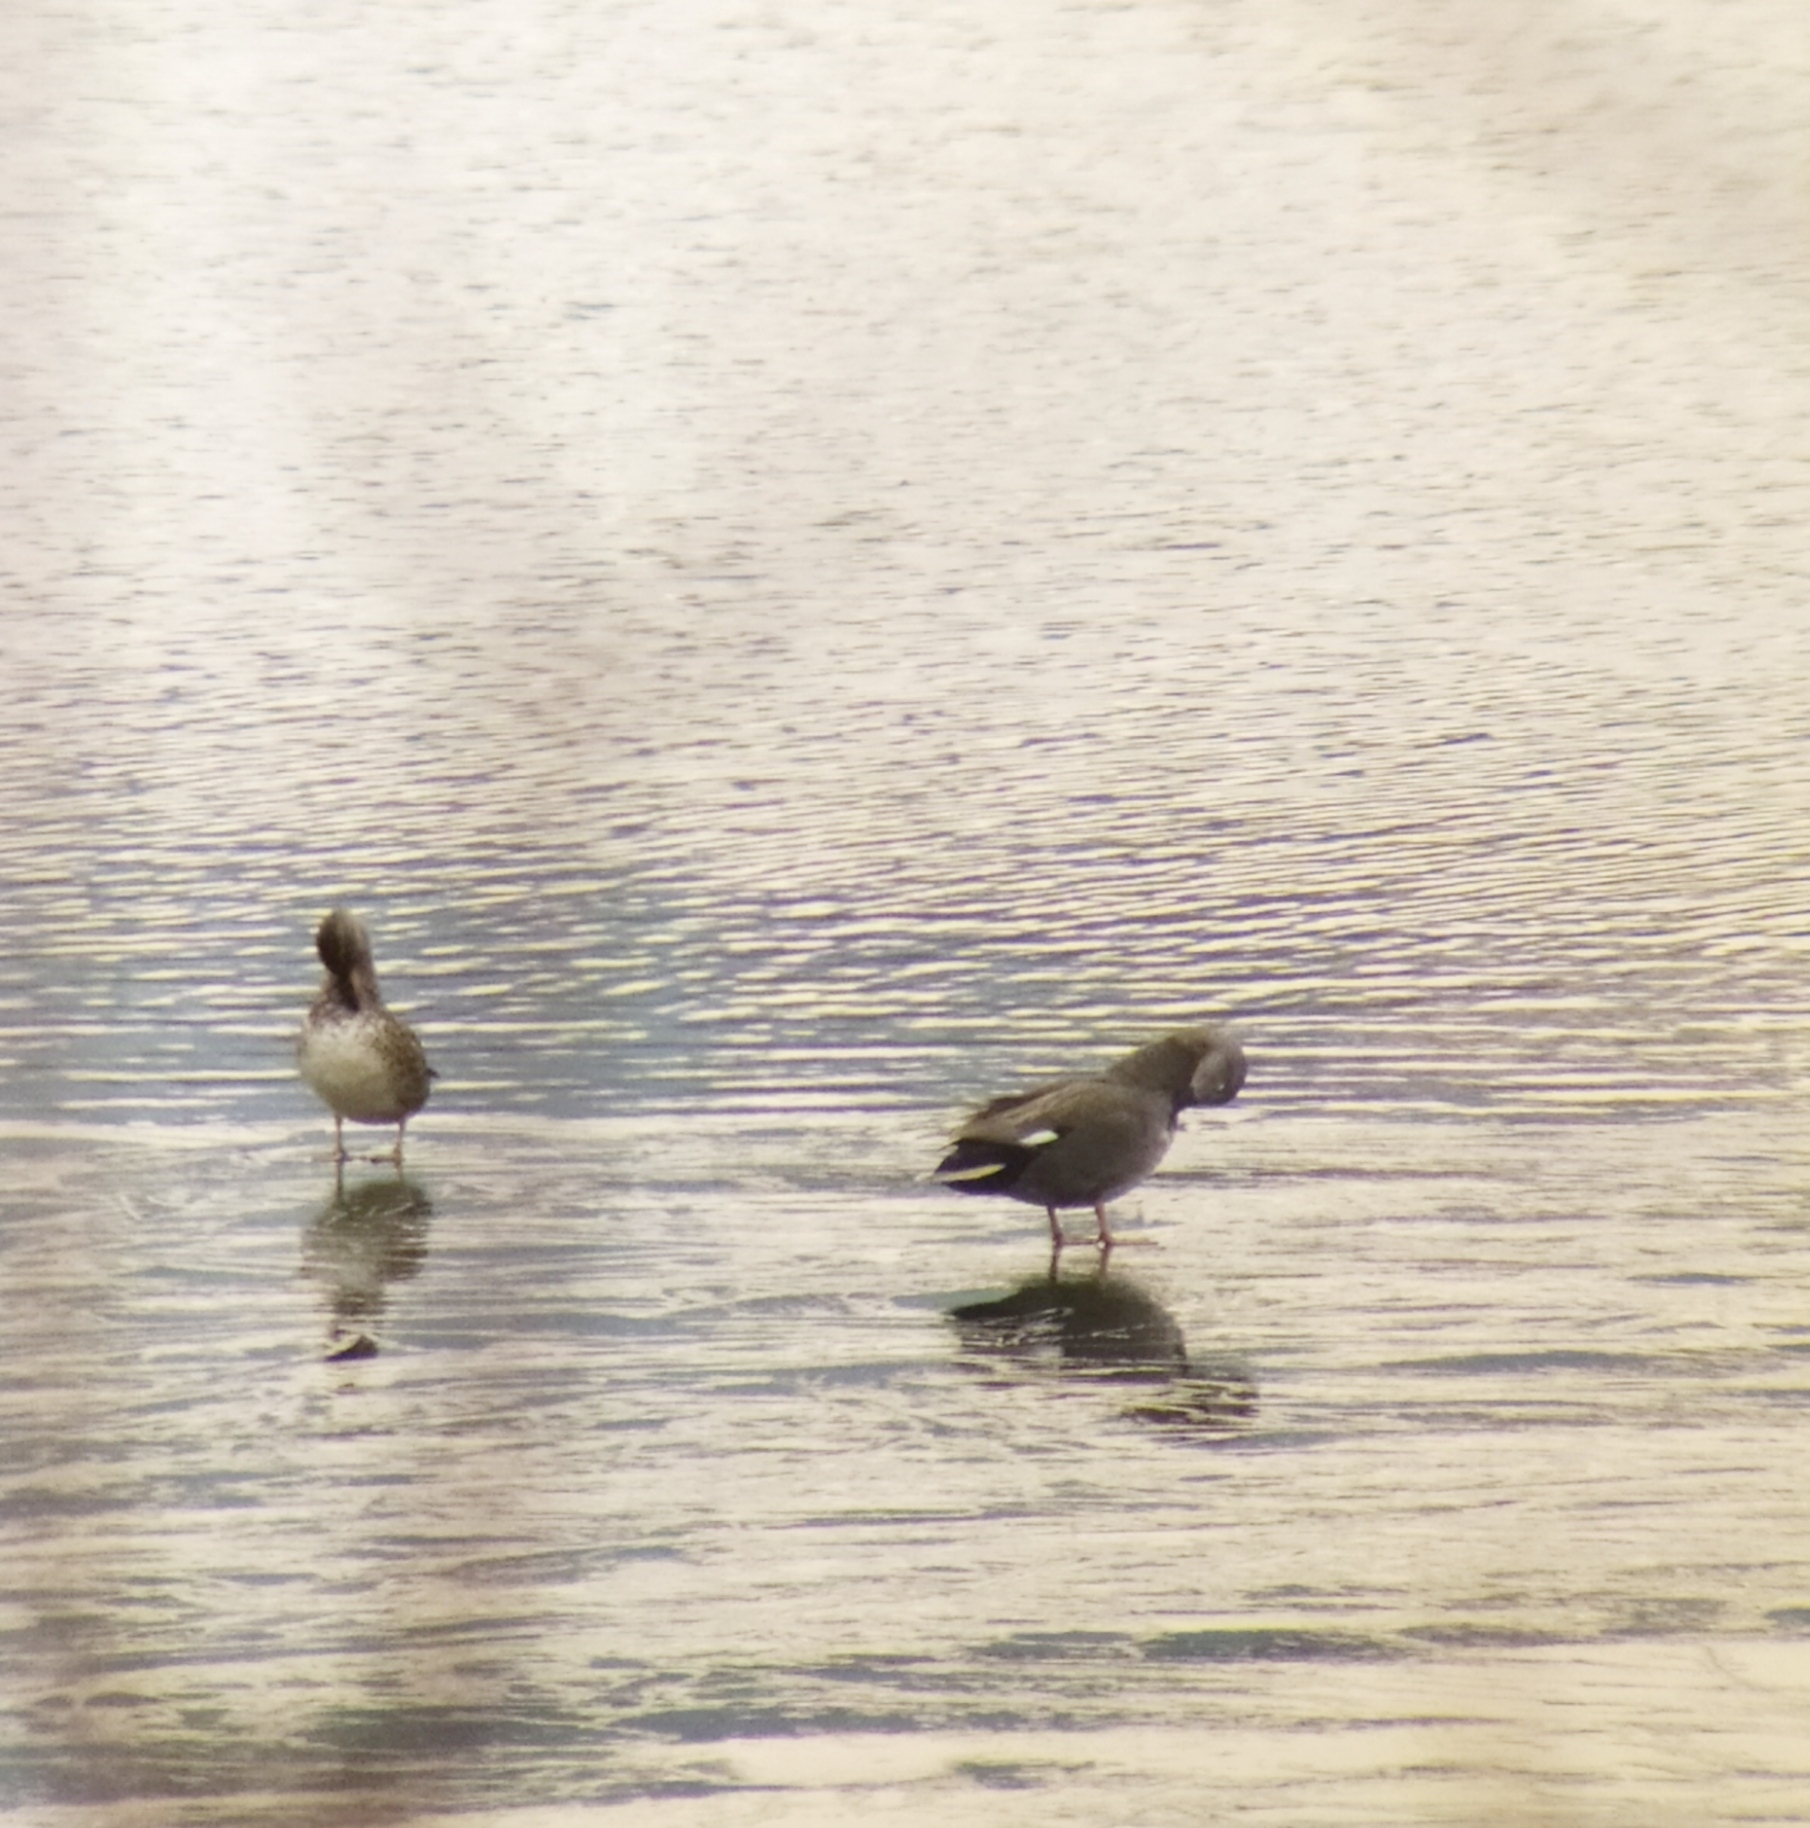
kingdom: Animalia
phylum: Chordata
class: Aves
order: Anseriformes
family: Anatidae
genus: Mareca
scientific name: Mareca strepera
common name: Gadwall
